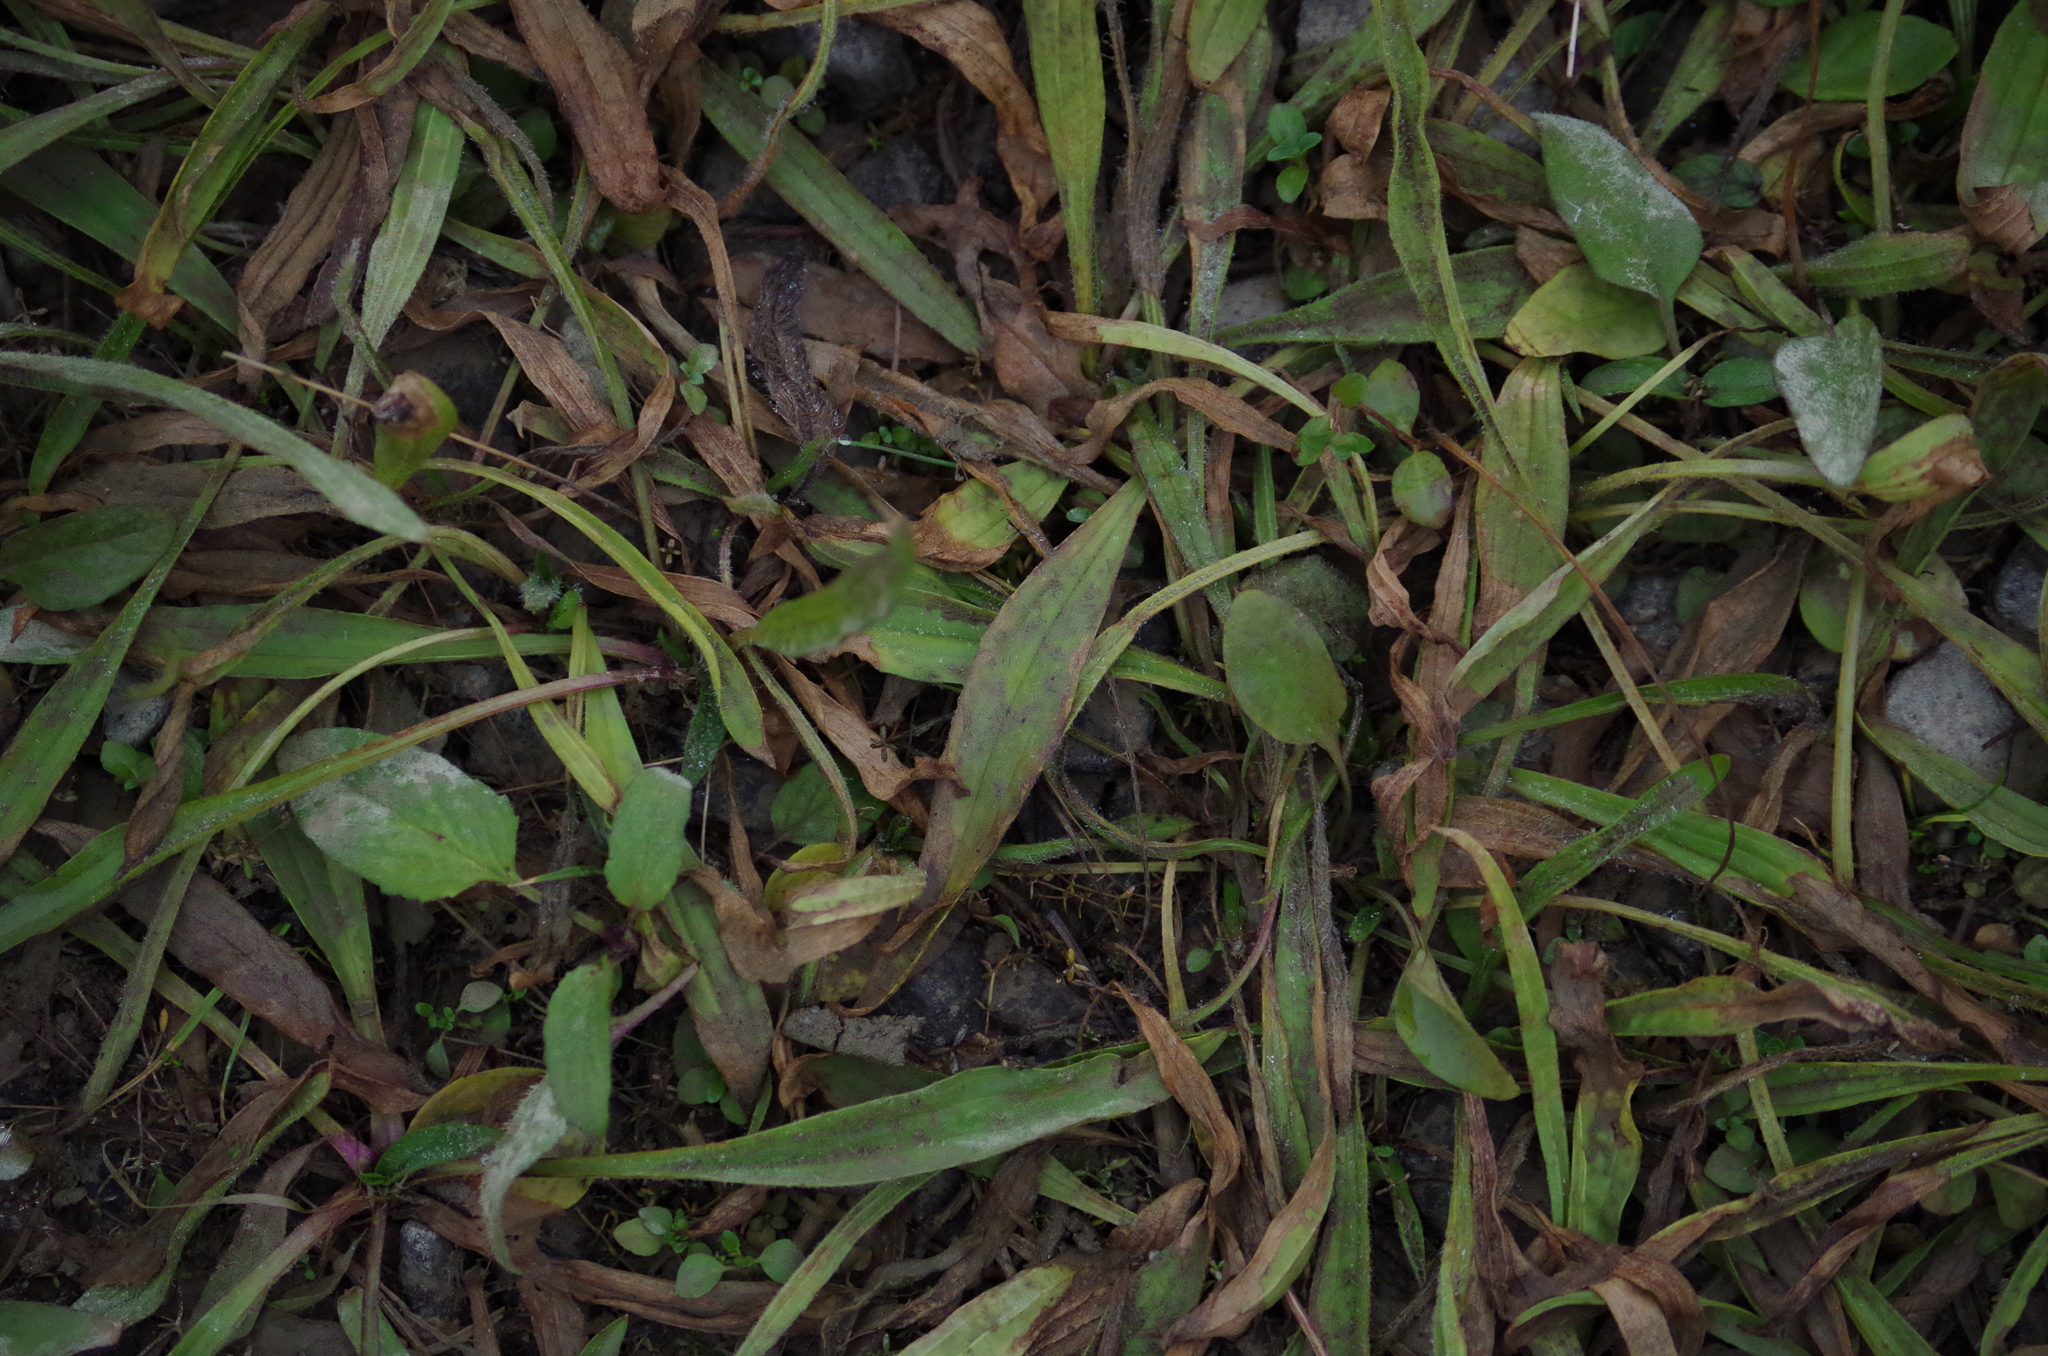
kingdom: Plantae
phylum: Tracheophyta
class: Magnoliopsida
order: Lamiales
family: Plantaginaceae
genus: Plantago
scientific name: Plantago lanceolata
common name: Ribwort plantain
